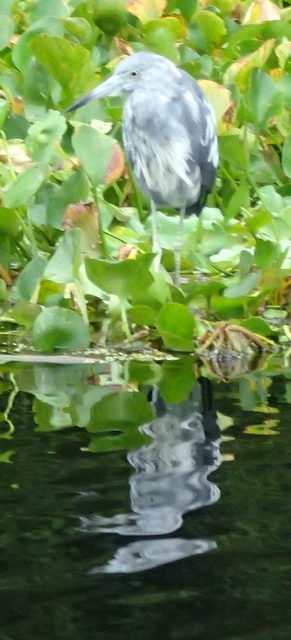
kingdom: Animalia
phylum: Chordata
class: Aves
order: Pelecaniformes
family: Ardeidae
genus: Egretta
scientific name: Egretta caerulea
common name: Little blue heron
